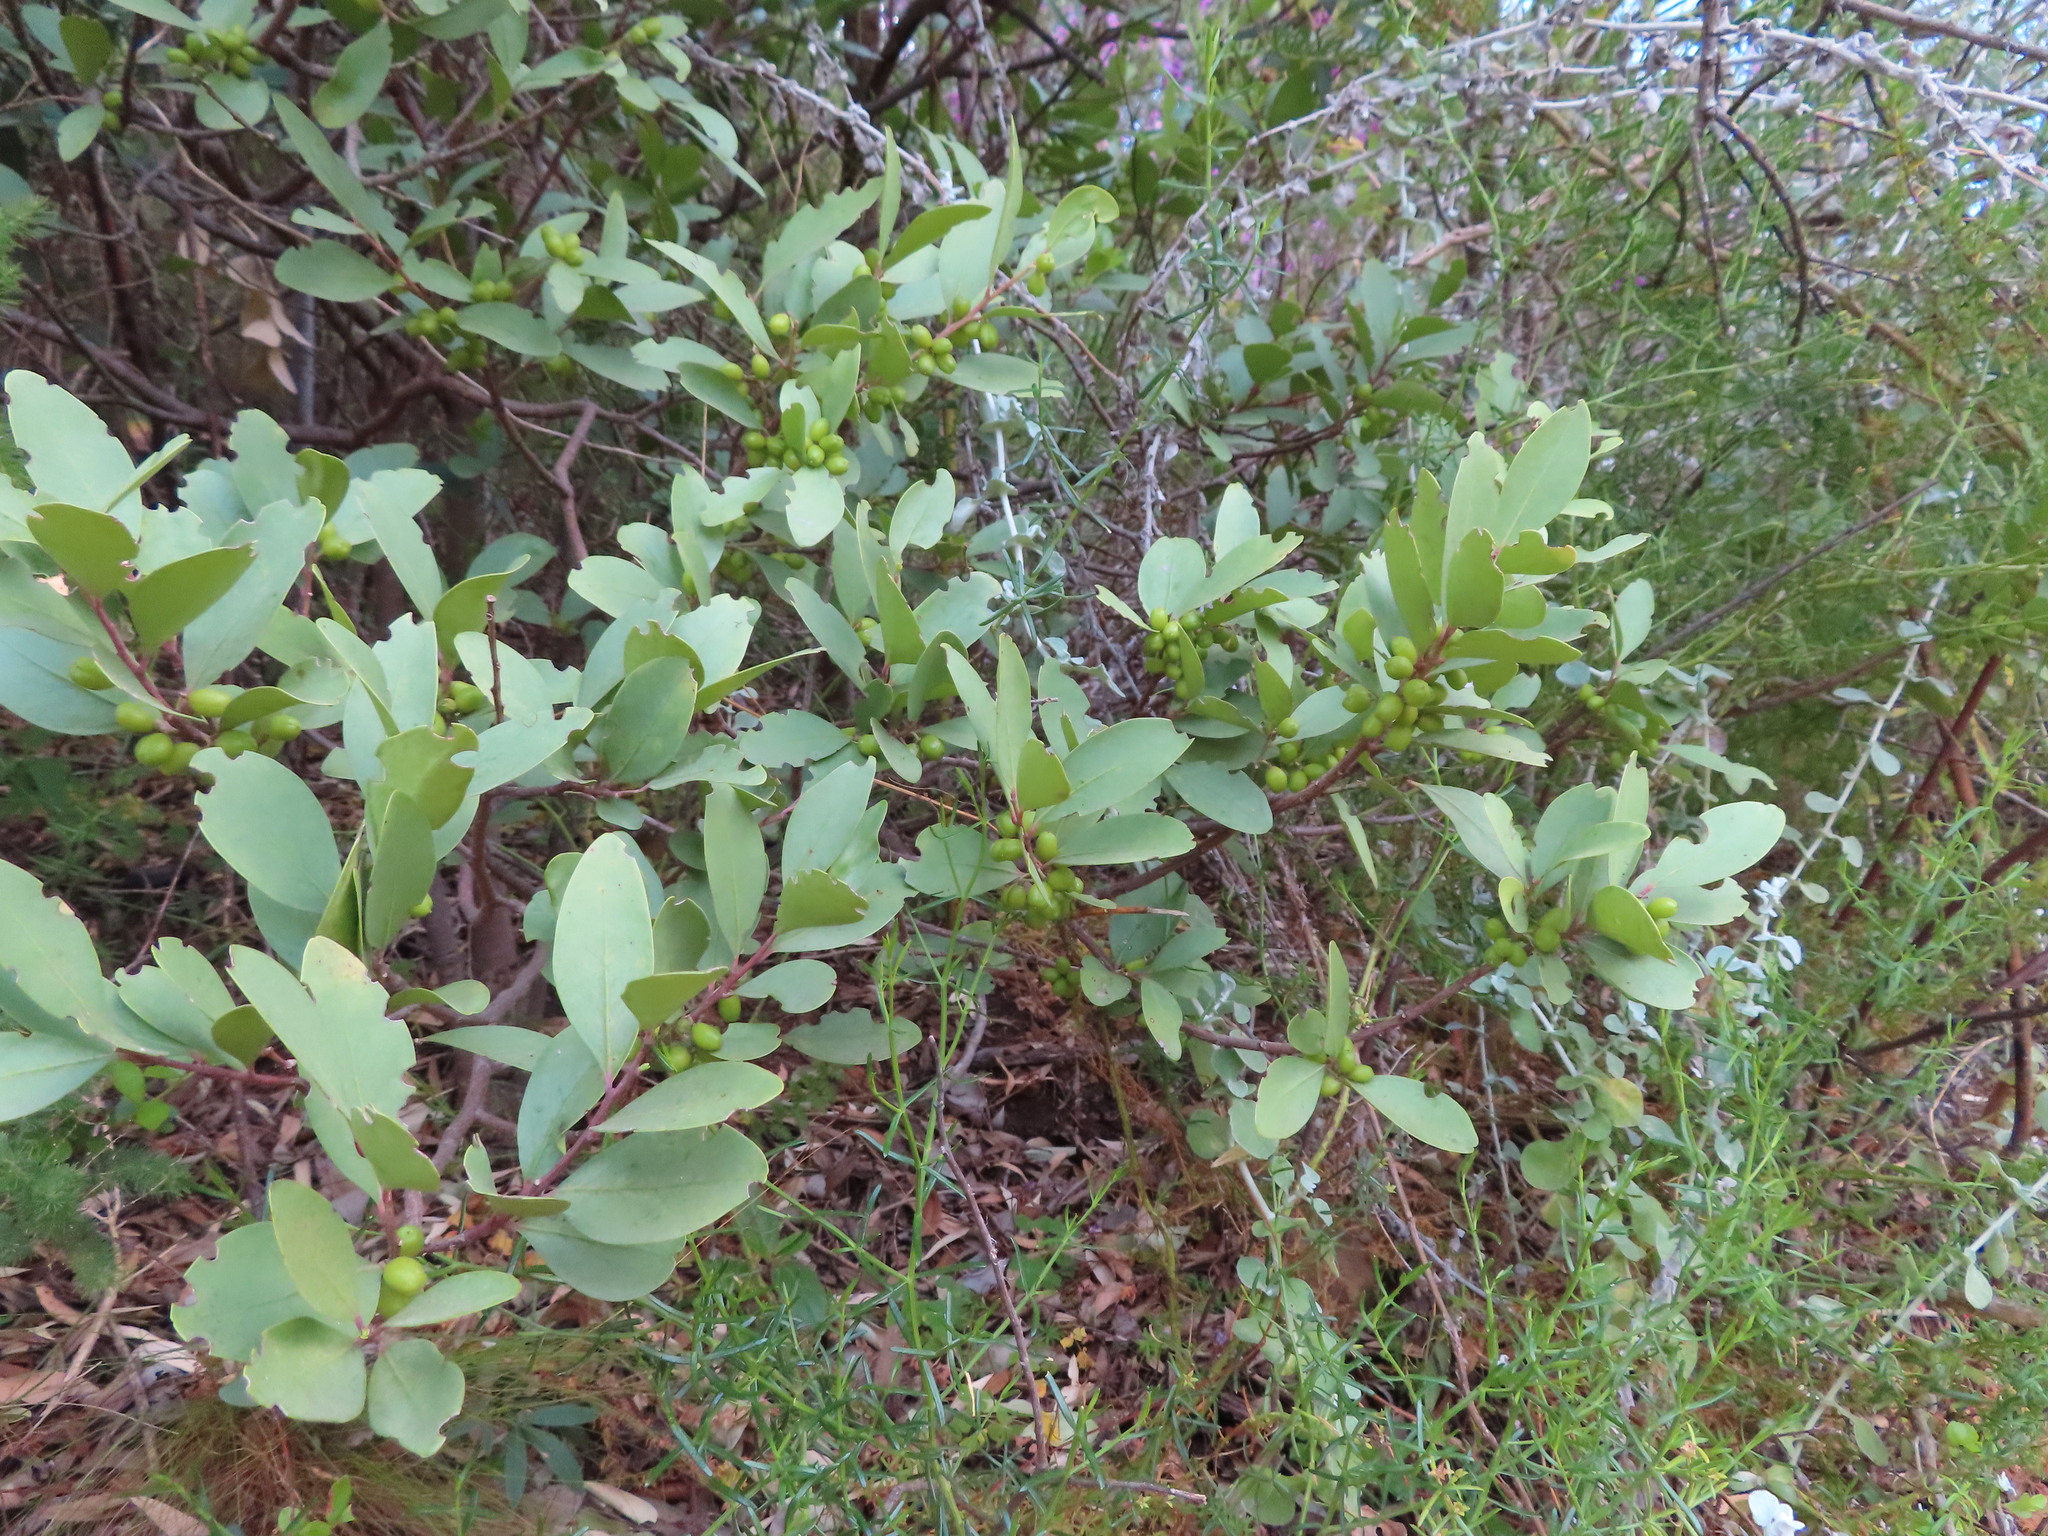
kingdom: Plantae
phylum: Tracheophyta
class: Magnoliopsida
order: Celastrales
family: Celastraceae
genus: Gymnosporia
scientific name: Gymnosporia laurina
